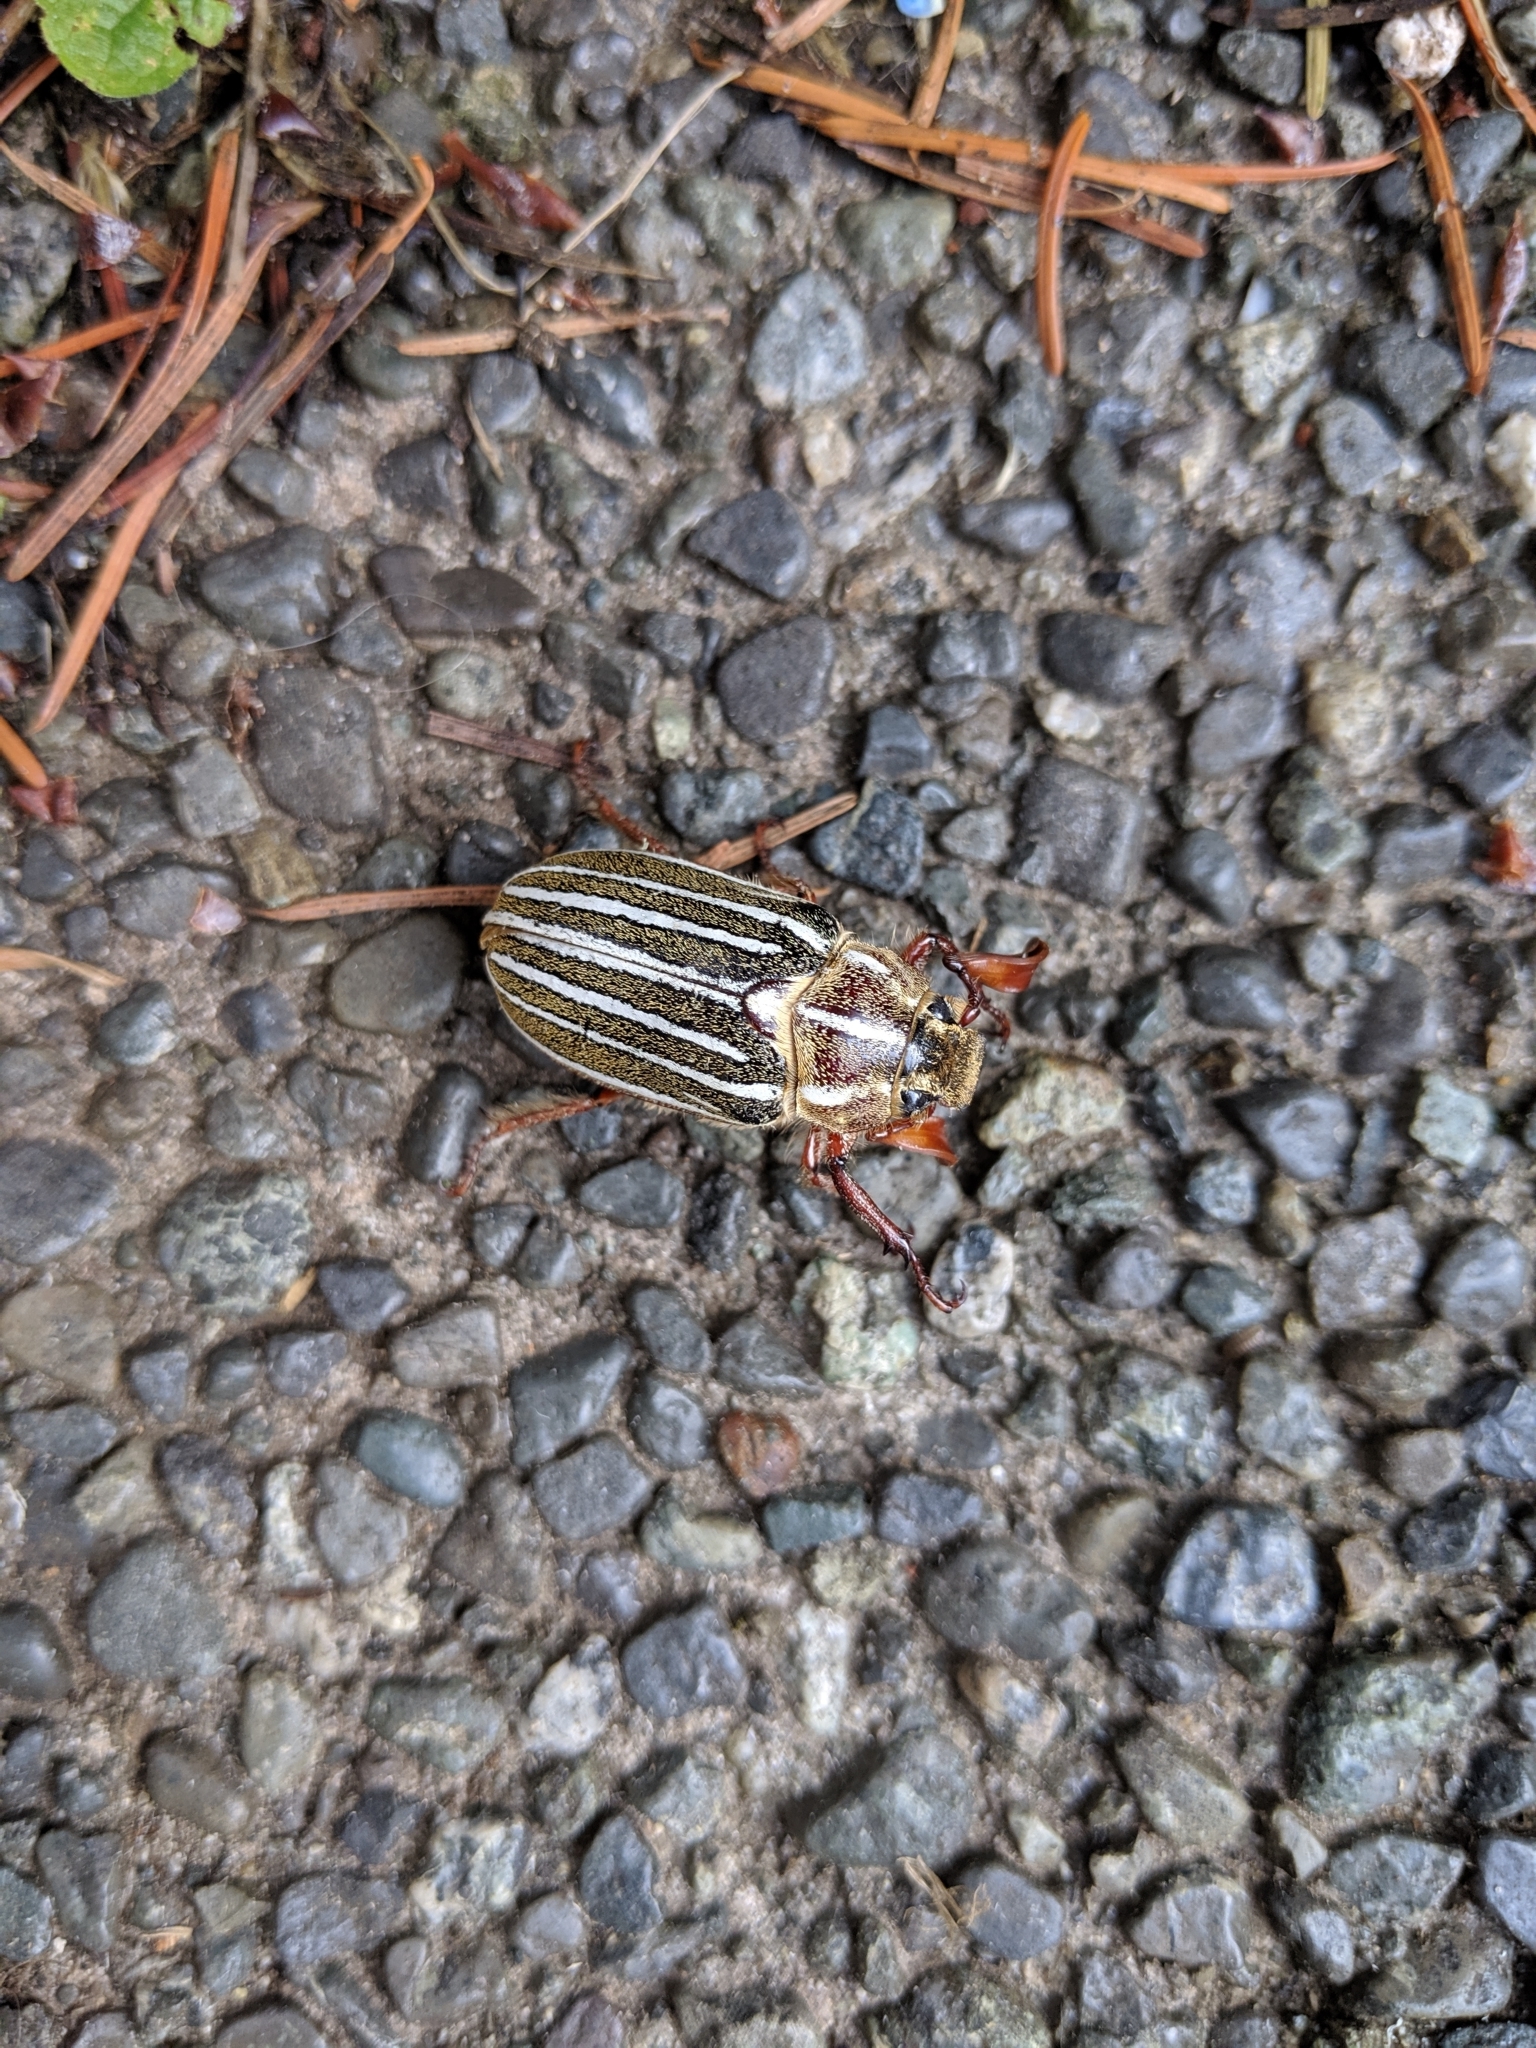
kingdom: Animalia
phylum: Arthropoda
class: Insecta
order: Coleoptera
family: Scarabaeidae
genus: Polyphylla
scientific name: Polyphylla crinita
